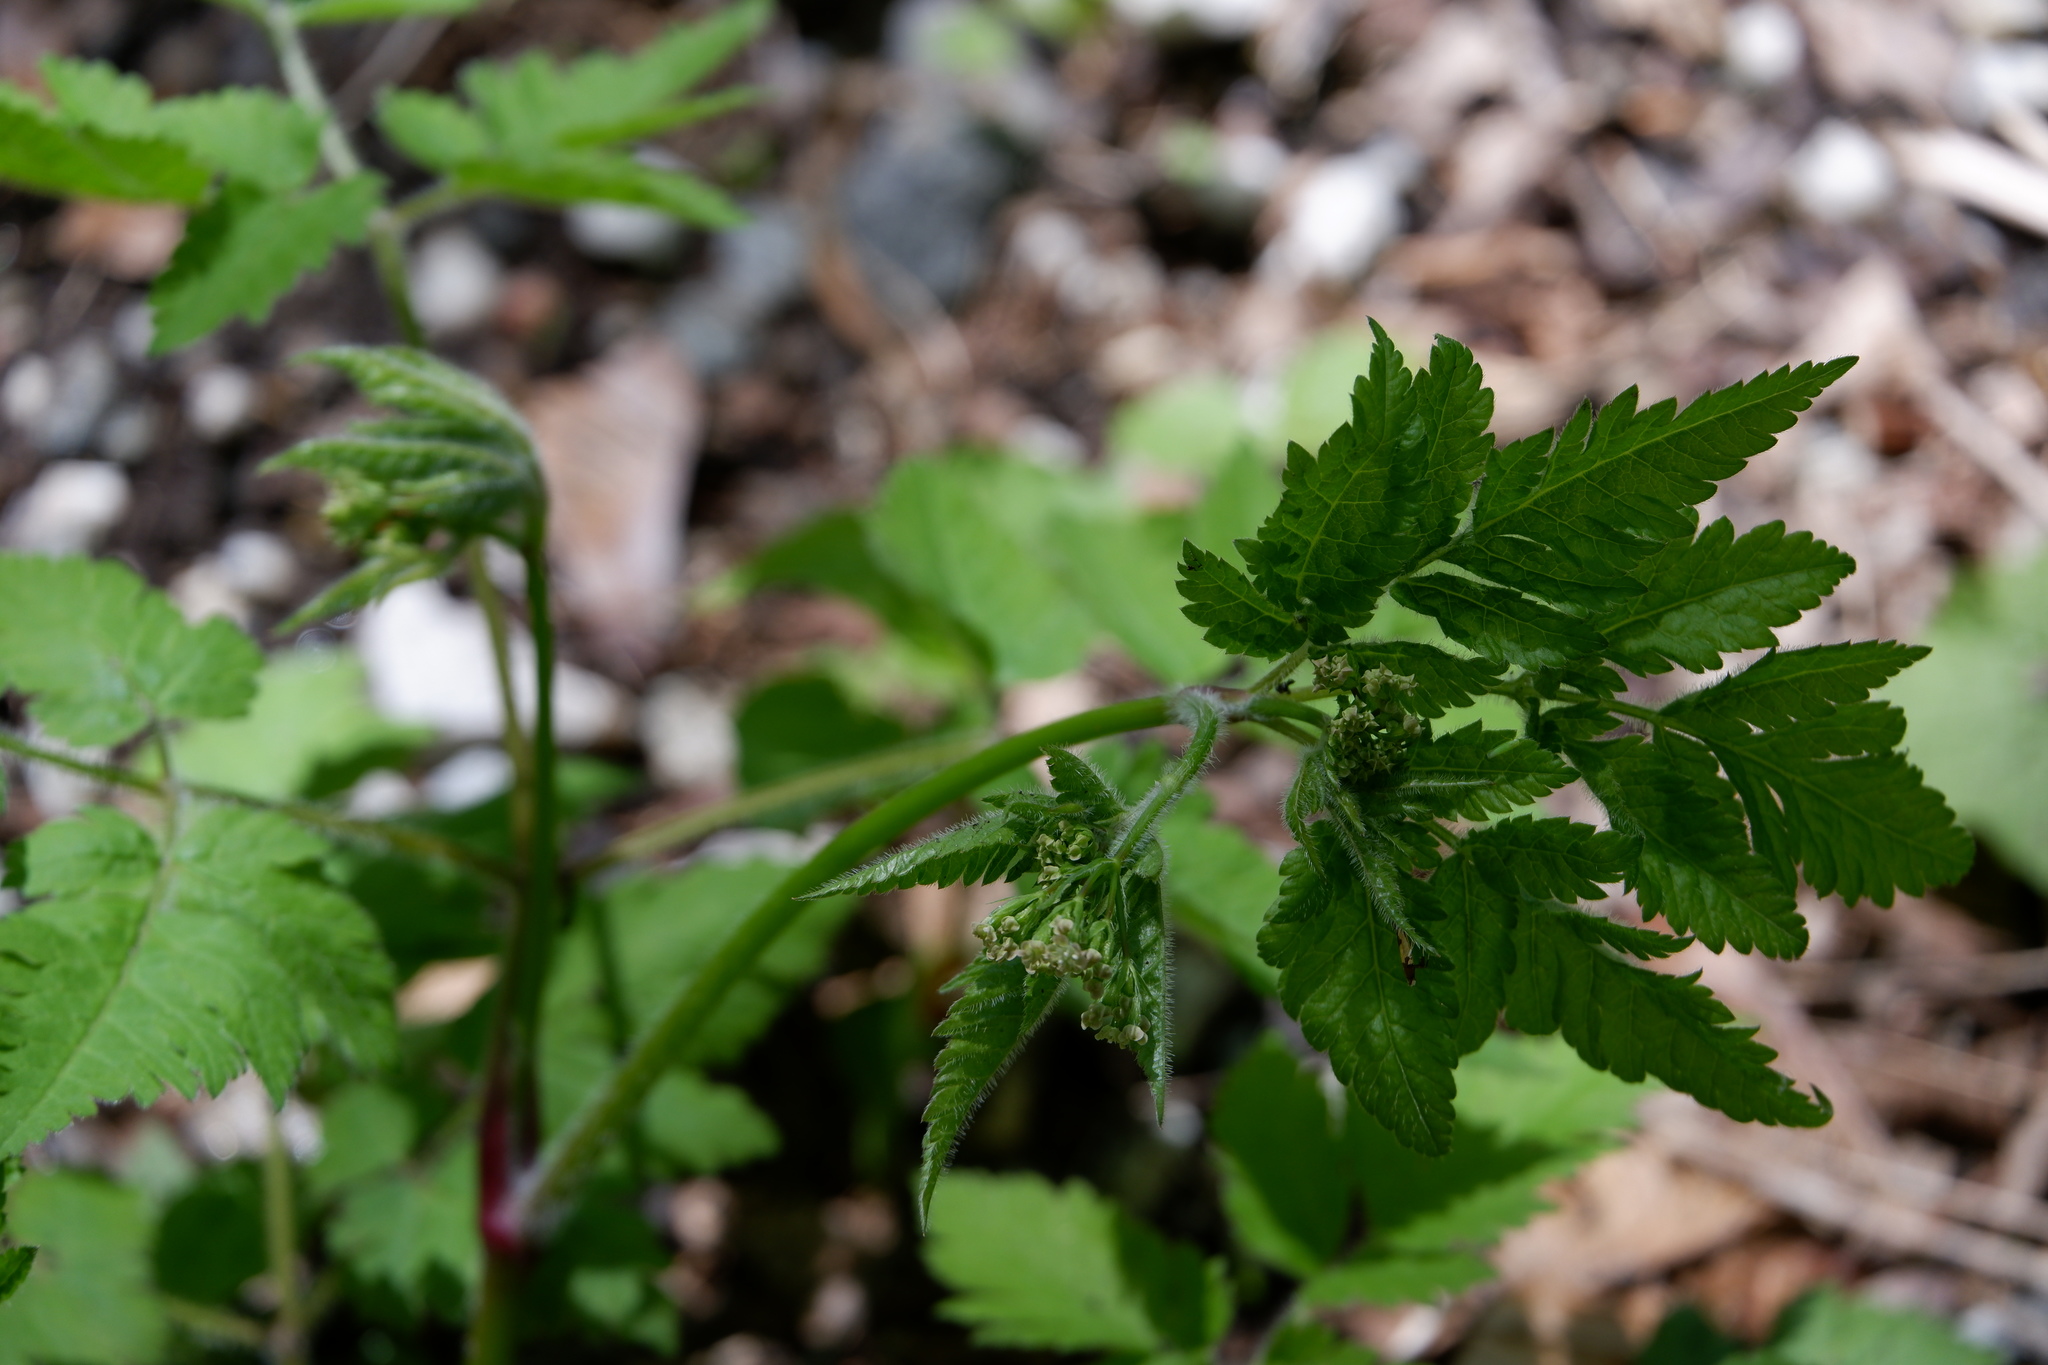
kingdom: Plantae
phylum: Tracheophyta
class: Magnoliopsida
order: Apiales
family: Apiaceae
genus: Osmorhiza
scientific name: Osmorhiza claytonii
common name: Hairy sweet cicely
